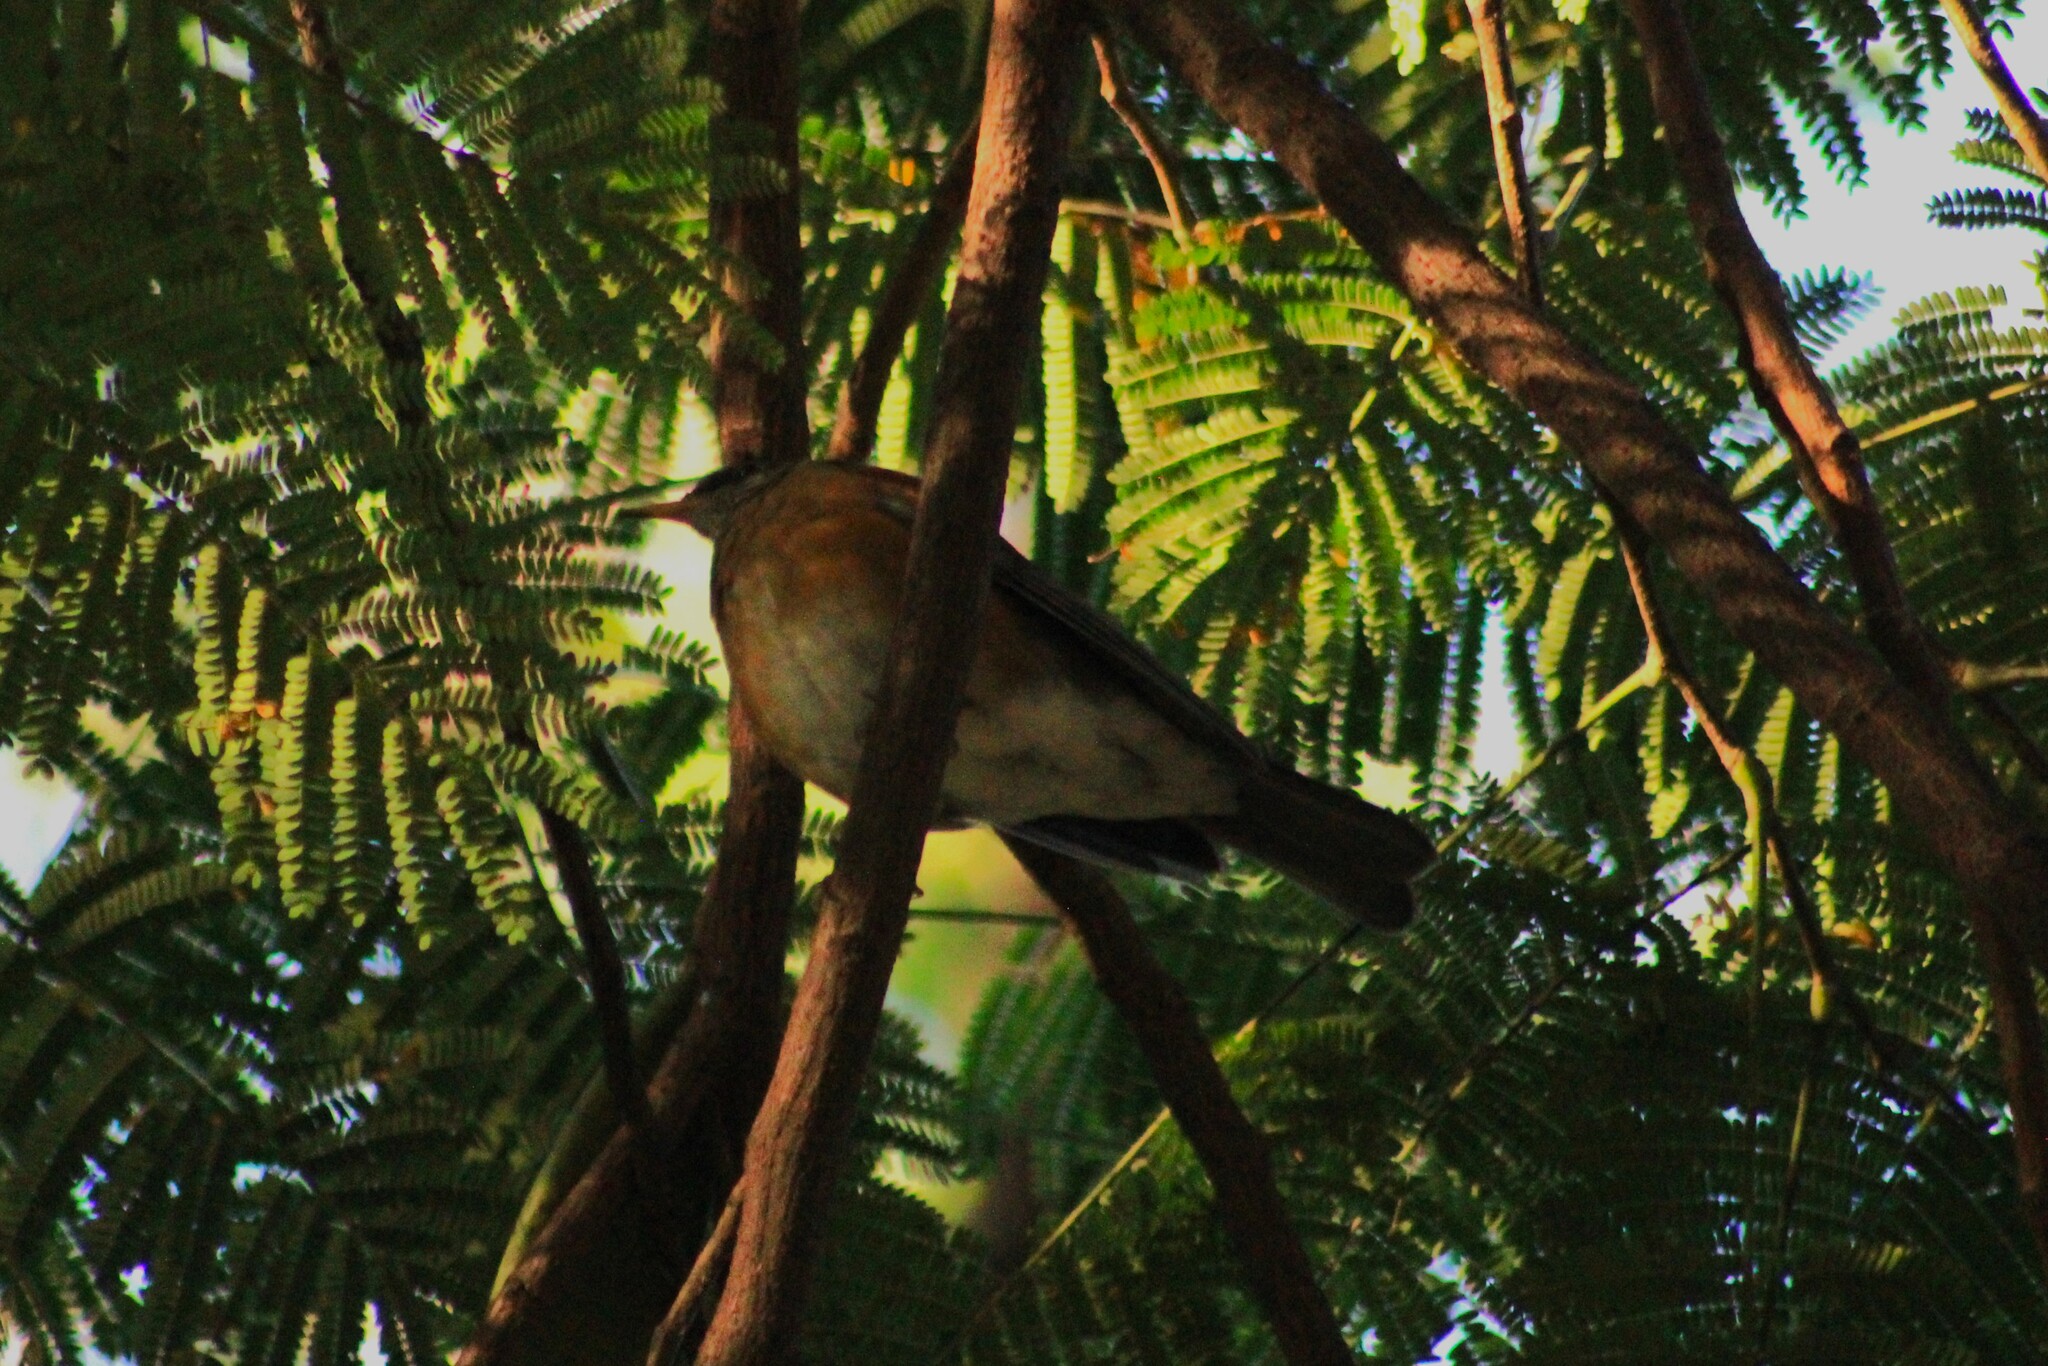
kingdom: Animalia
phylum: Chordata
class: Aves
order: Passeriformes
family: Turdidae
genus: Turdus
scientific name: Turdus rufopalliatus
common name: Rufous-backed robin
